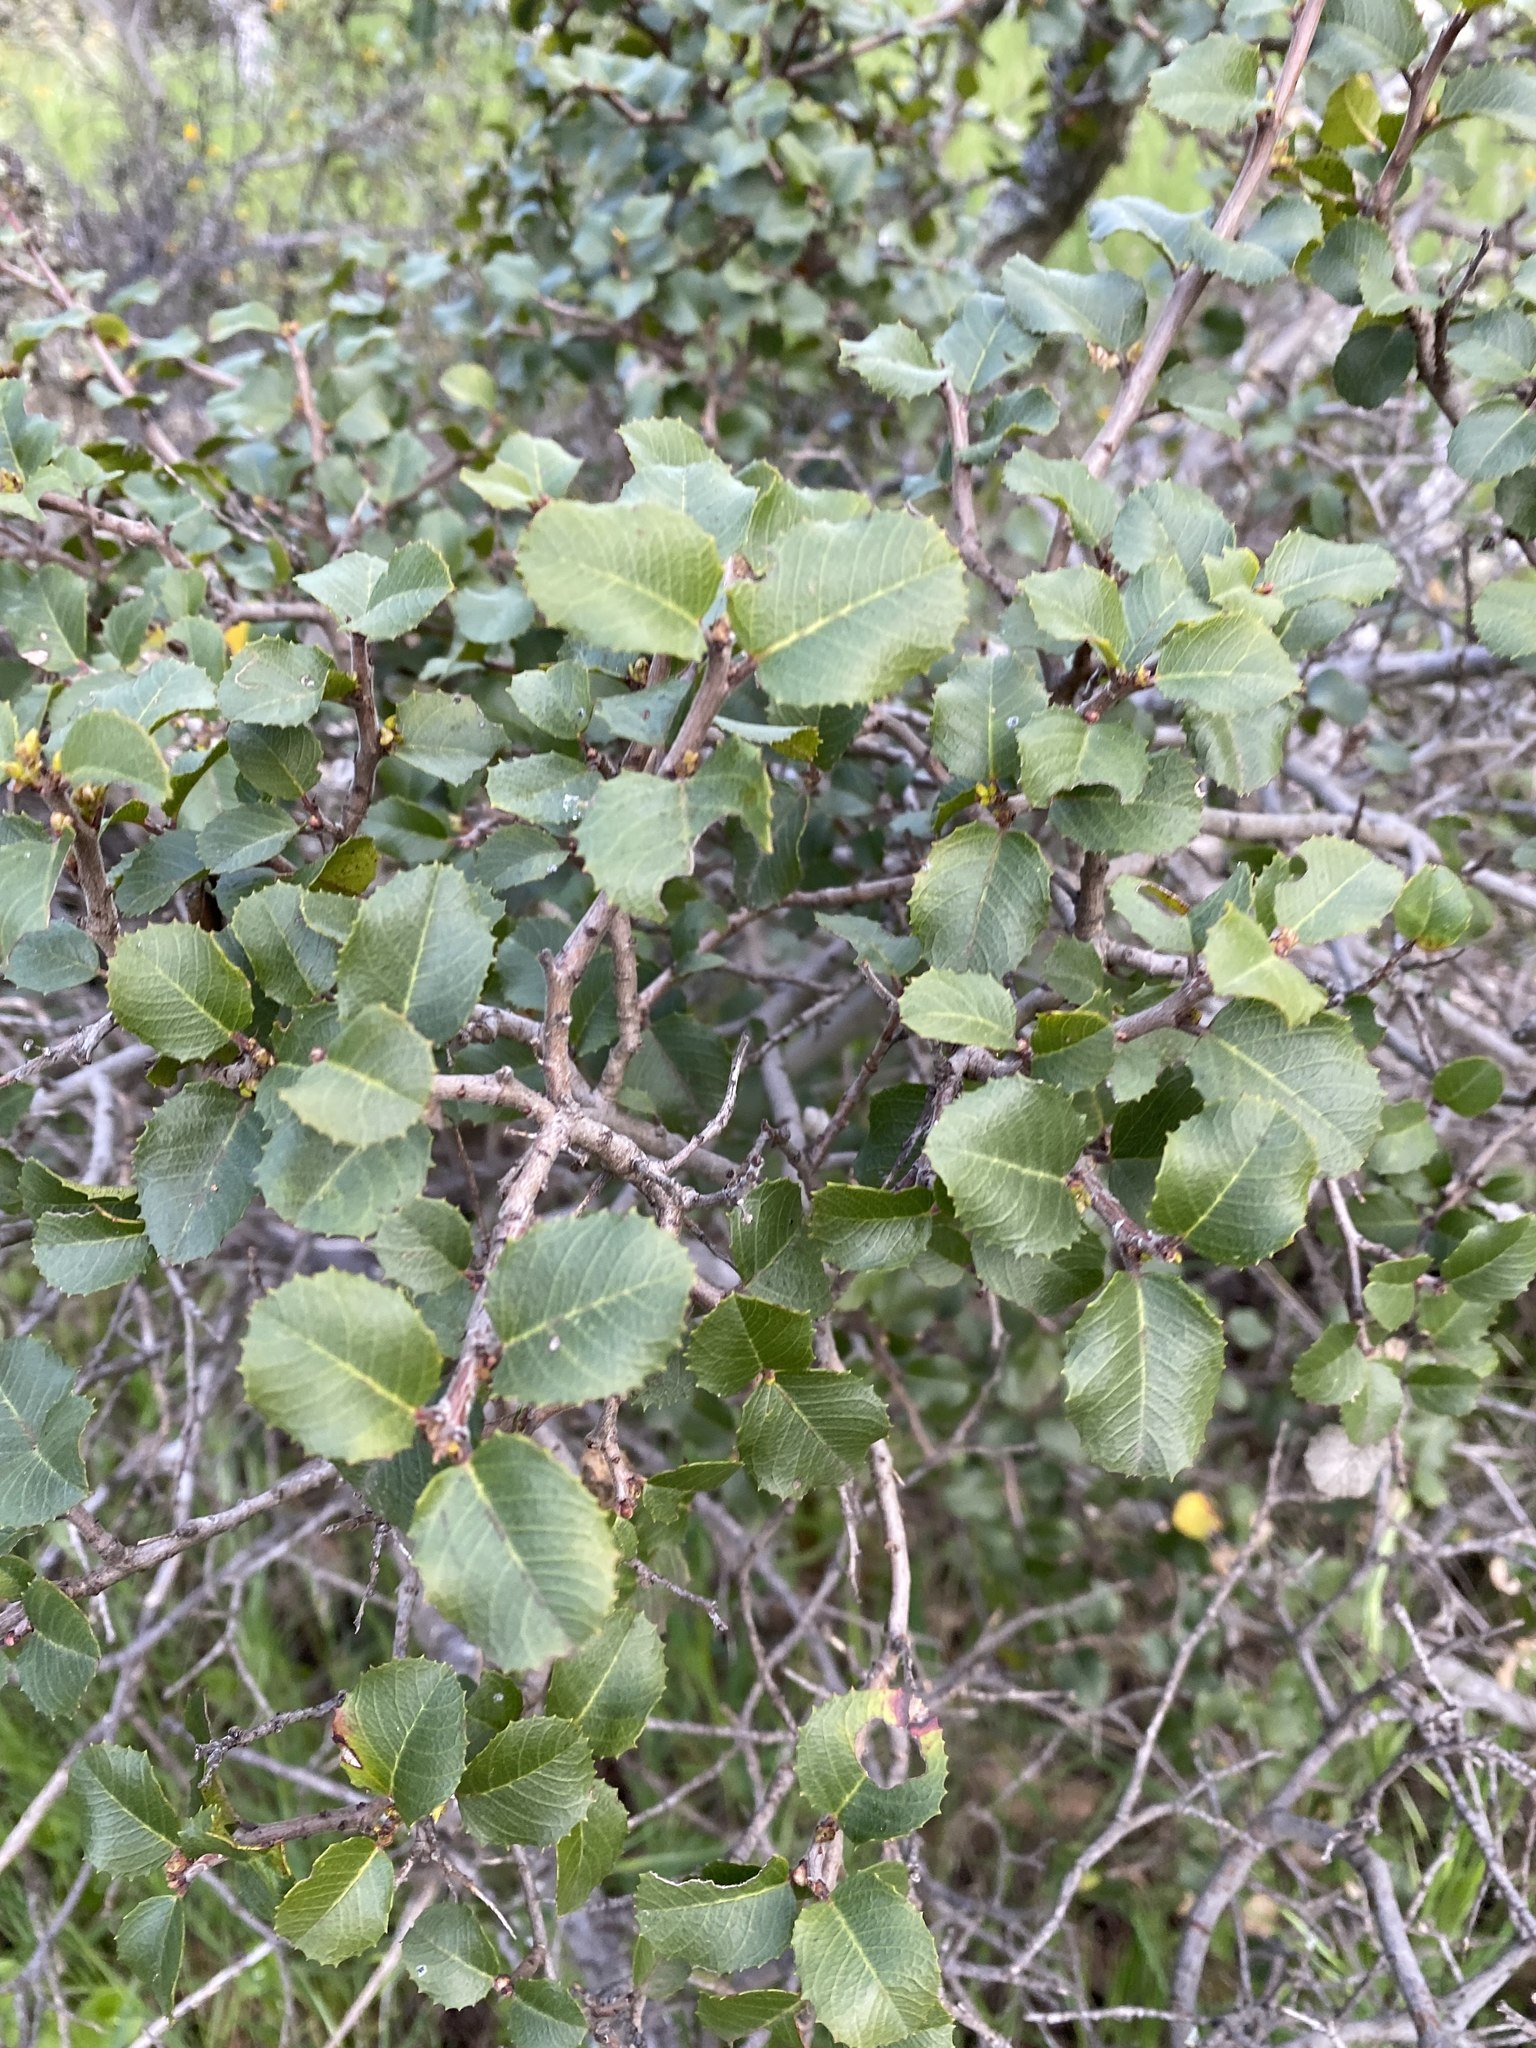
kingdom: Plantae
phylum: Tracheophyta
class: Magnoliopsida
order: Rosales
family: Rhamnaceae
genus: Endotropis
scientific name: Endotropis crocea
